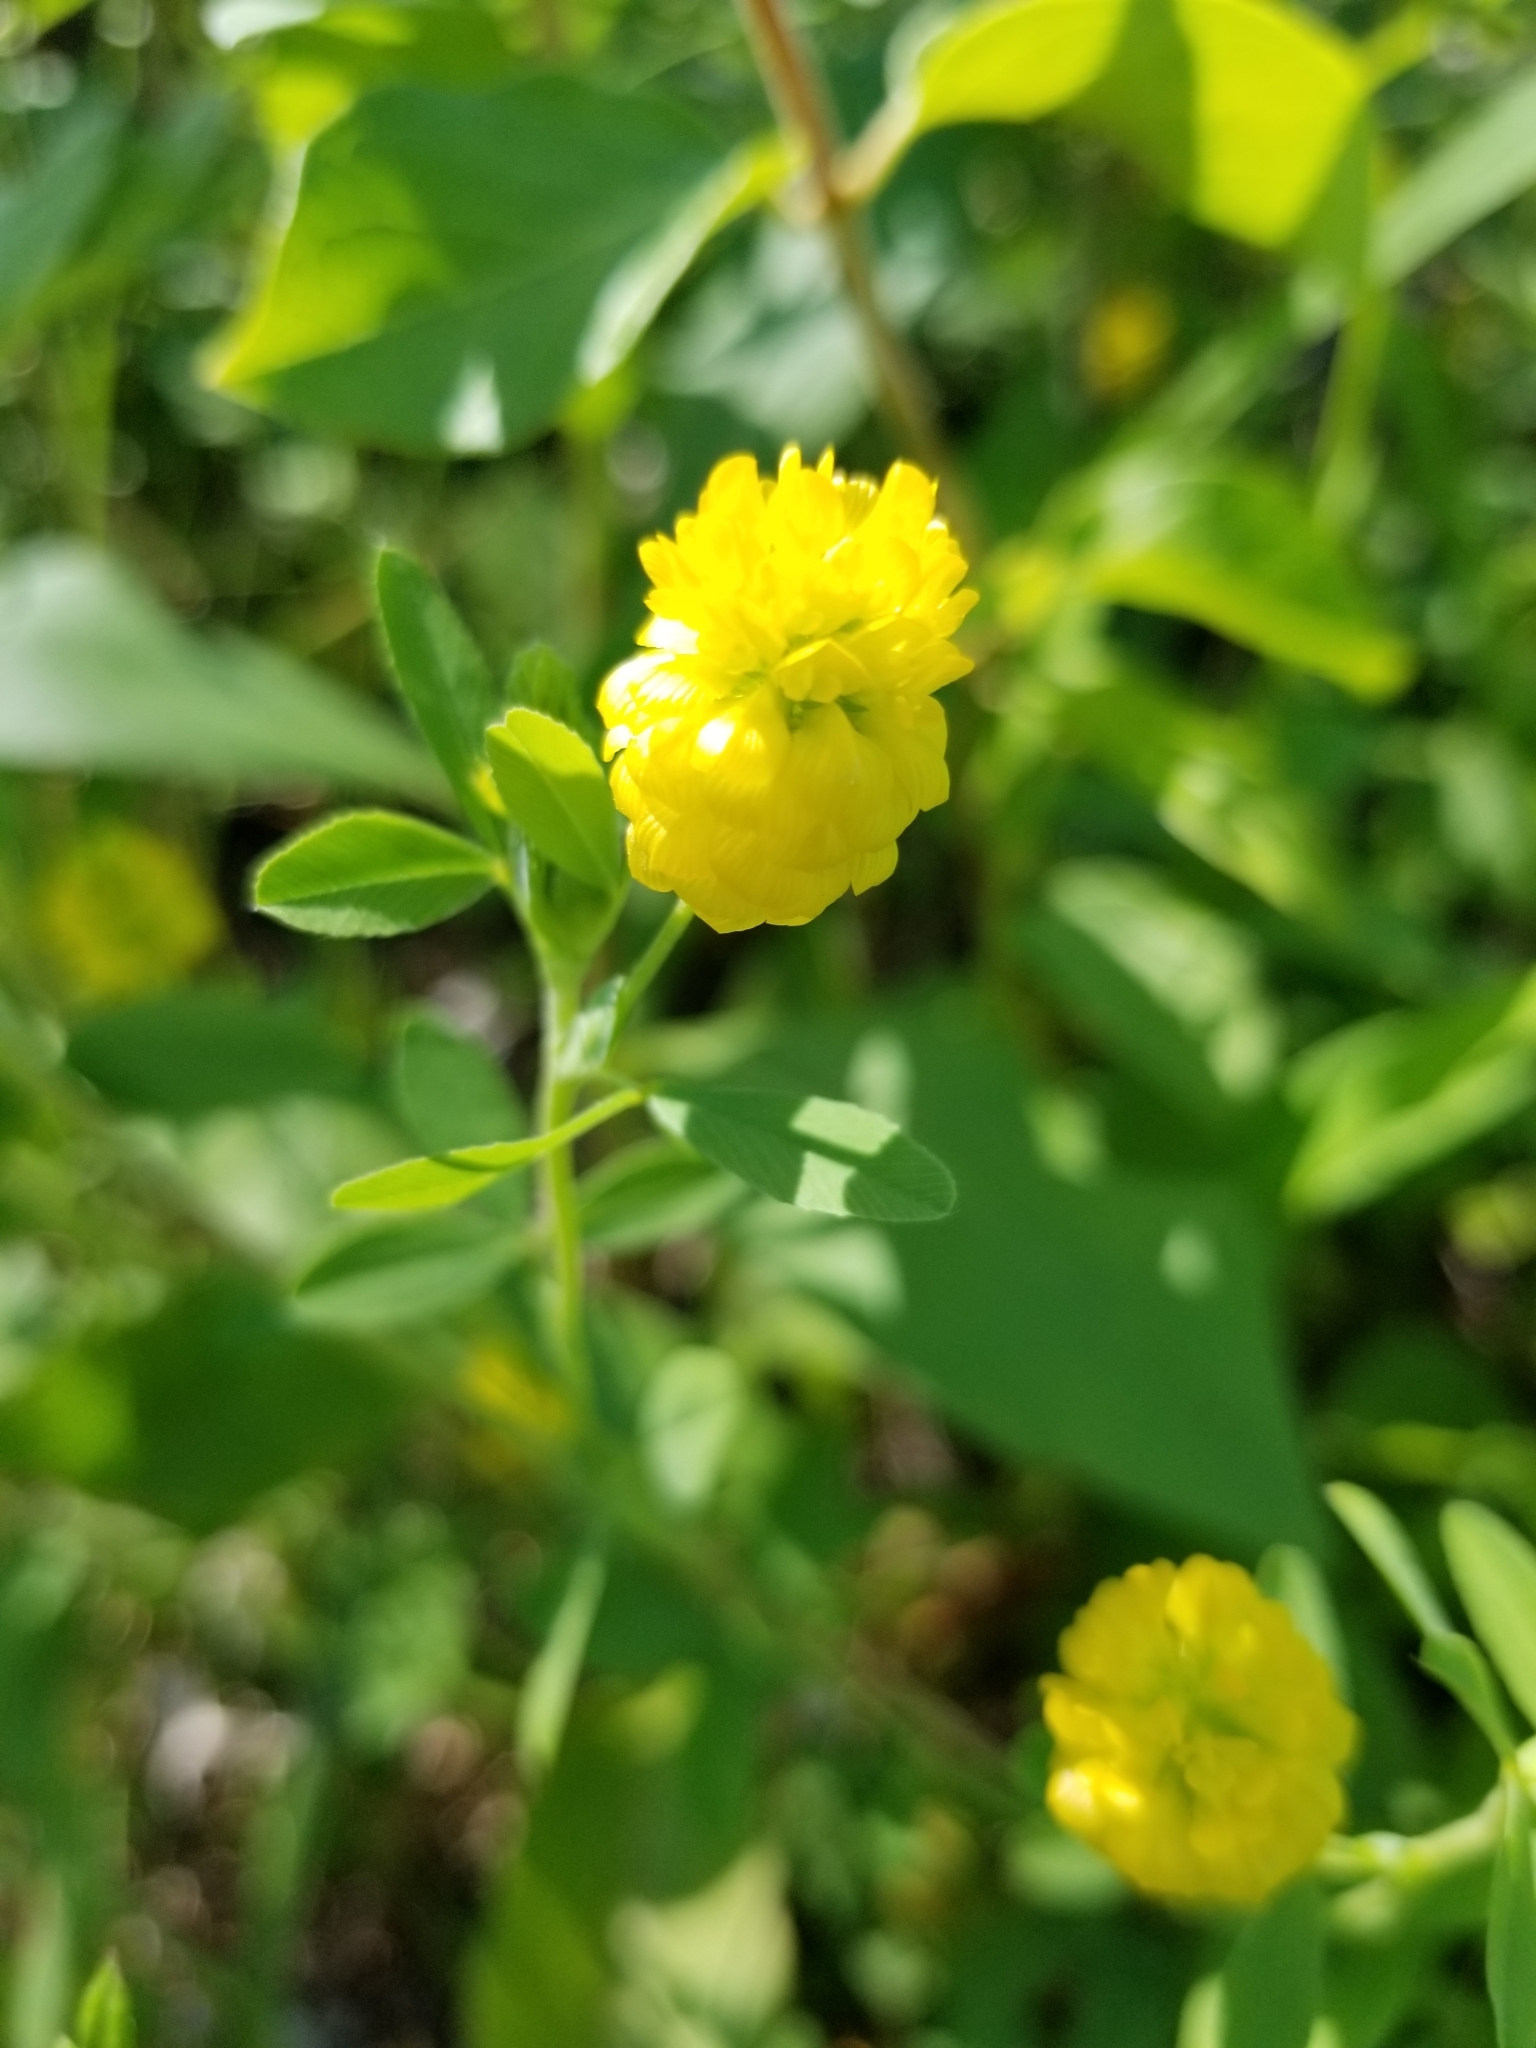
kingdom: Plantae
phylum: Tracheophyta
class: Magnoliopsida
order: Fabales
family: Fabaceae
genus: Trifolium
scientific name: Trifolium aureum
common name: Golden clover
